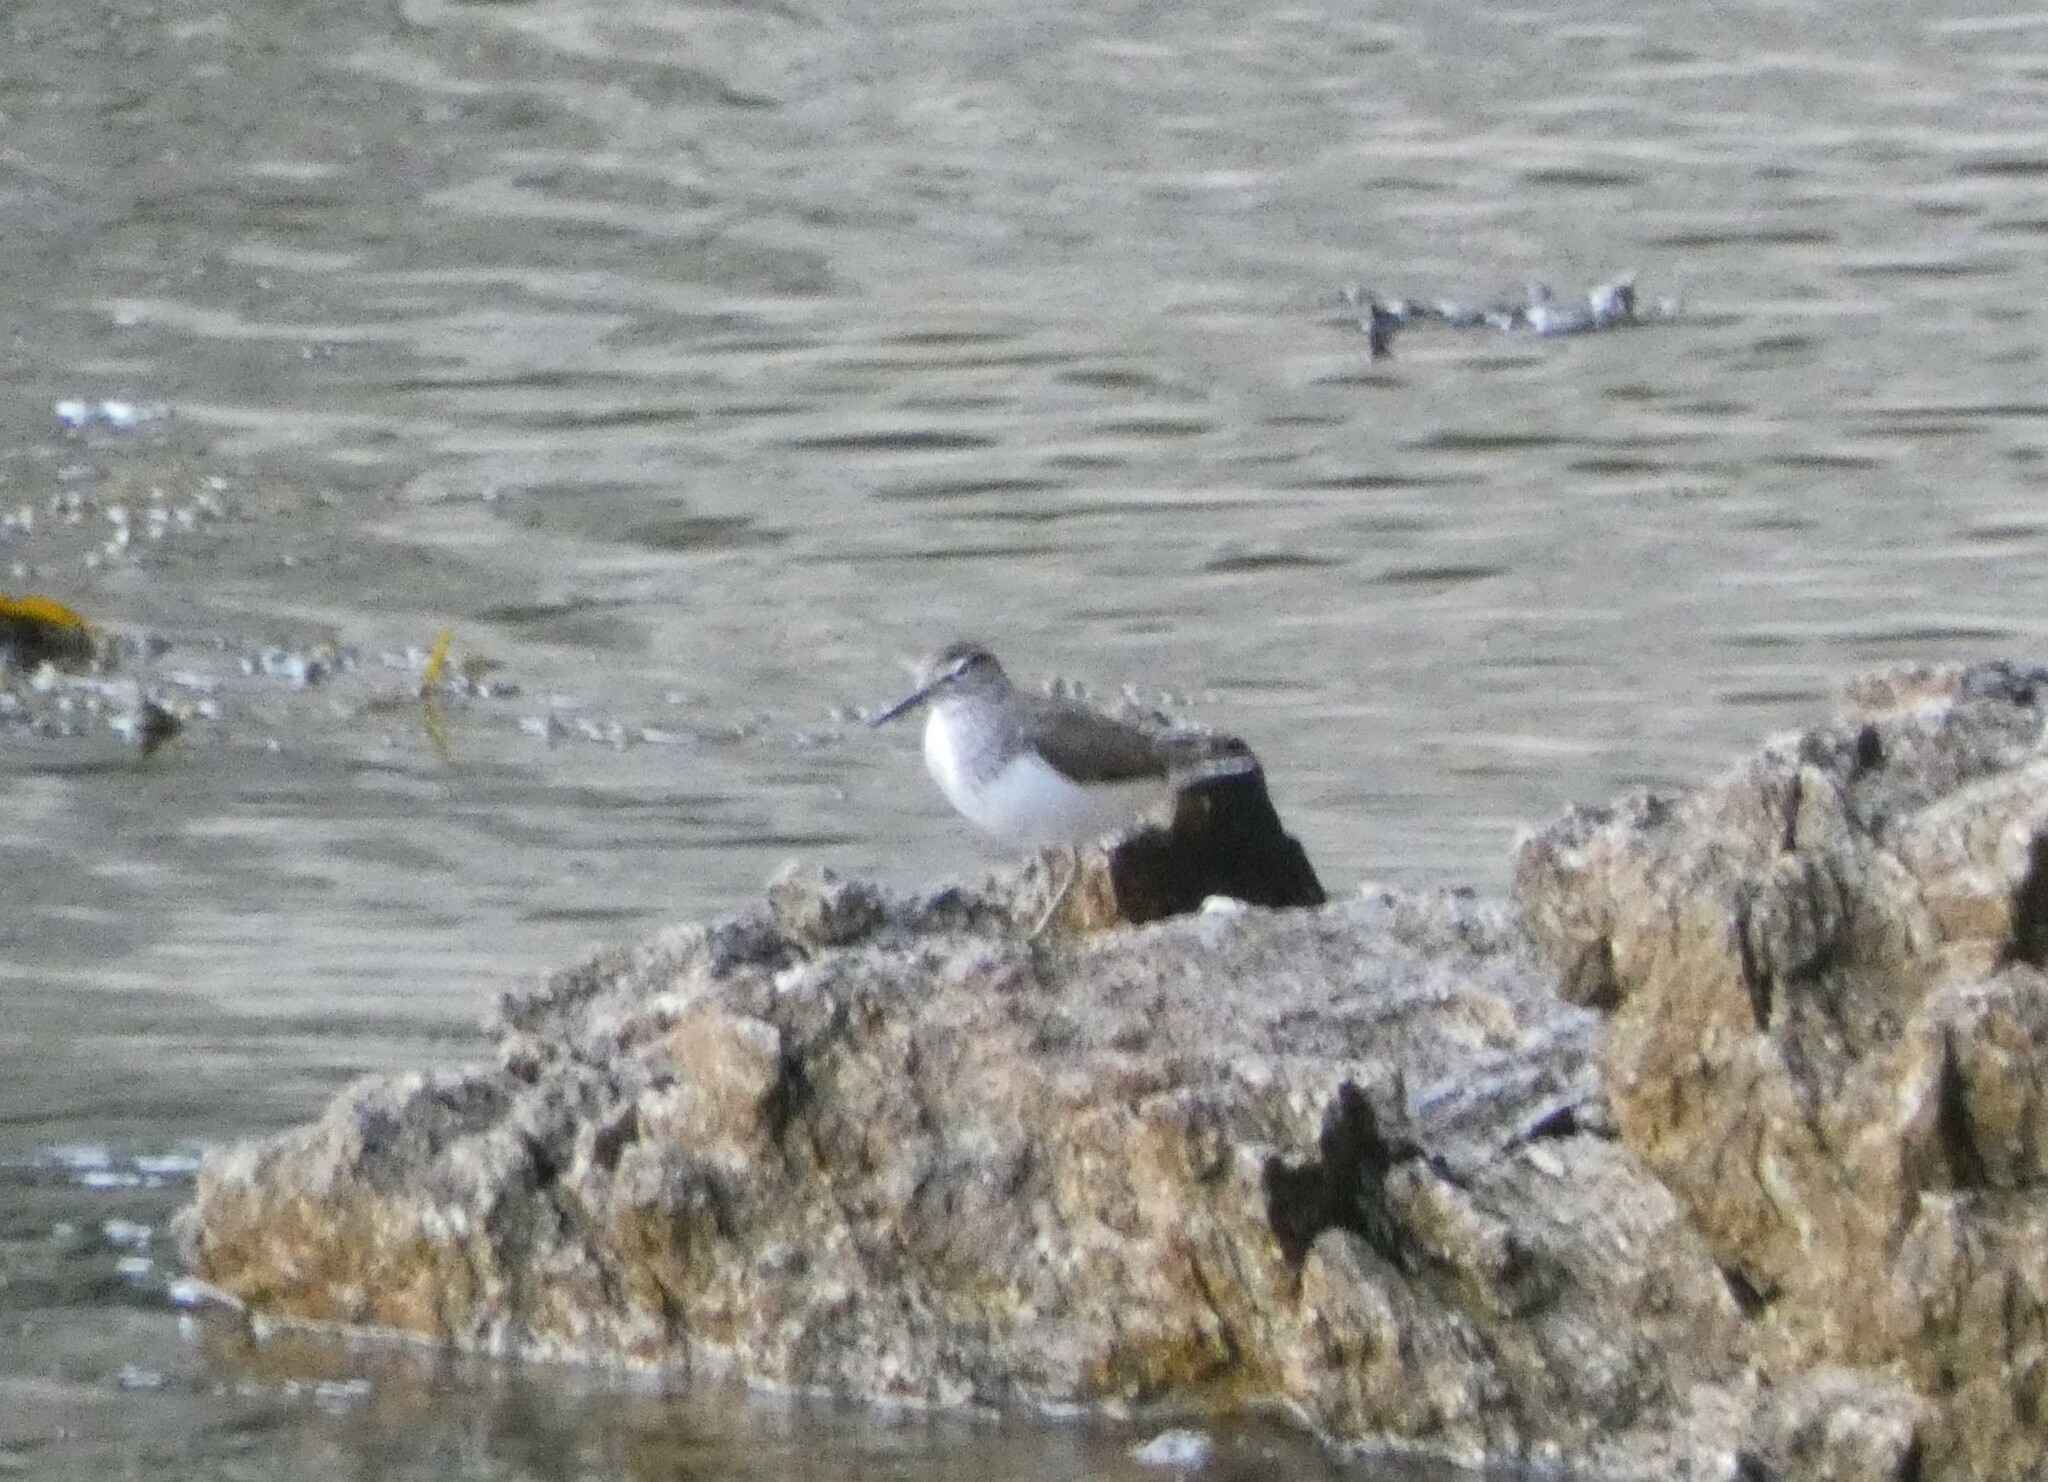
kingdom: Animalia
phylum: Chordata
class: Aves
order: Charadriiformes
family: Scolopacidae
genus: Actitis
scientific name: Actitis hypoleucos
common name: Common sandpiper
